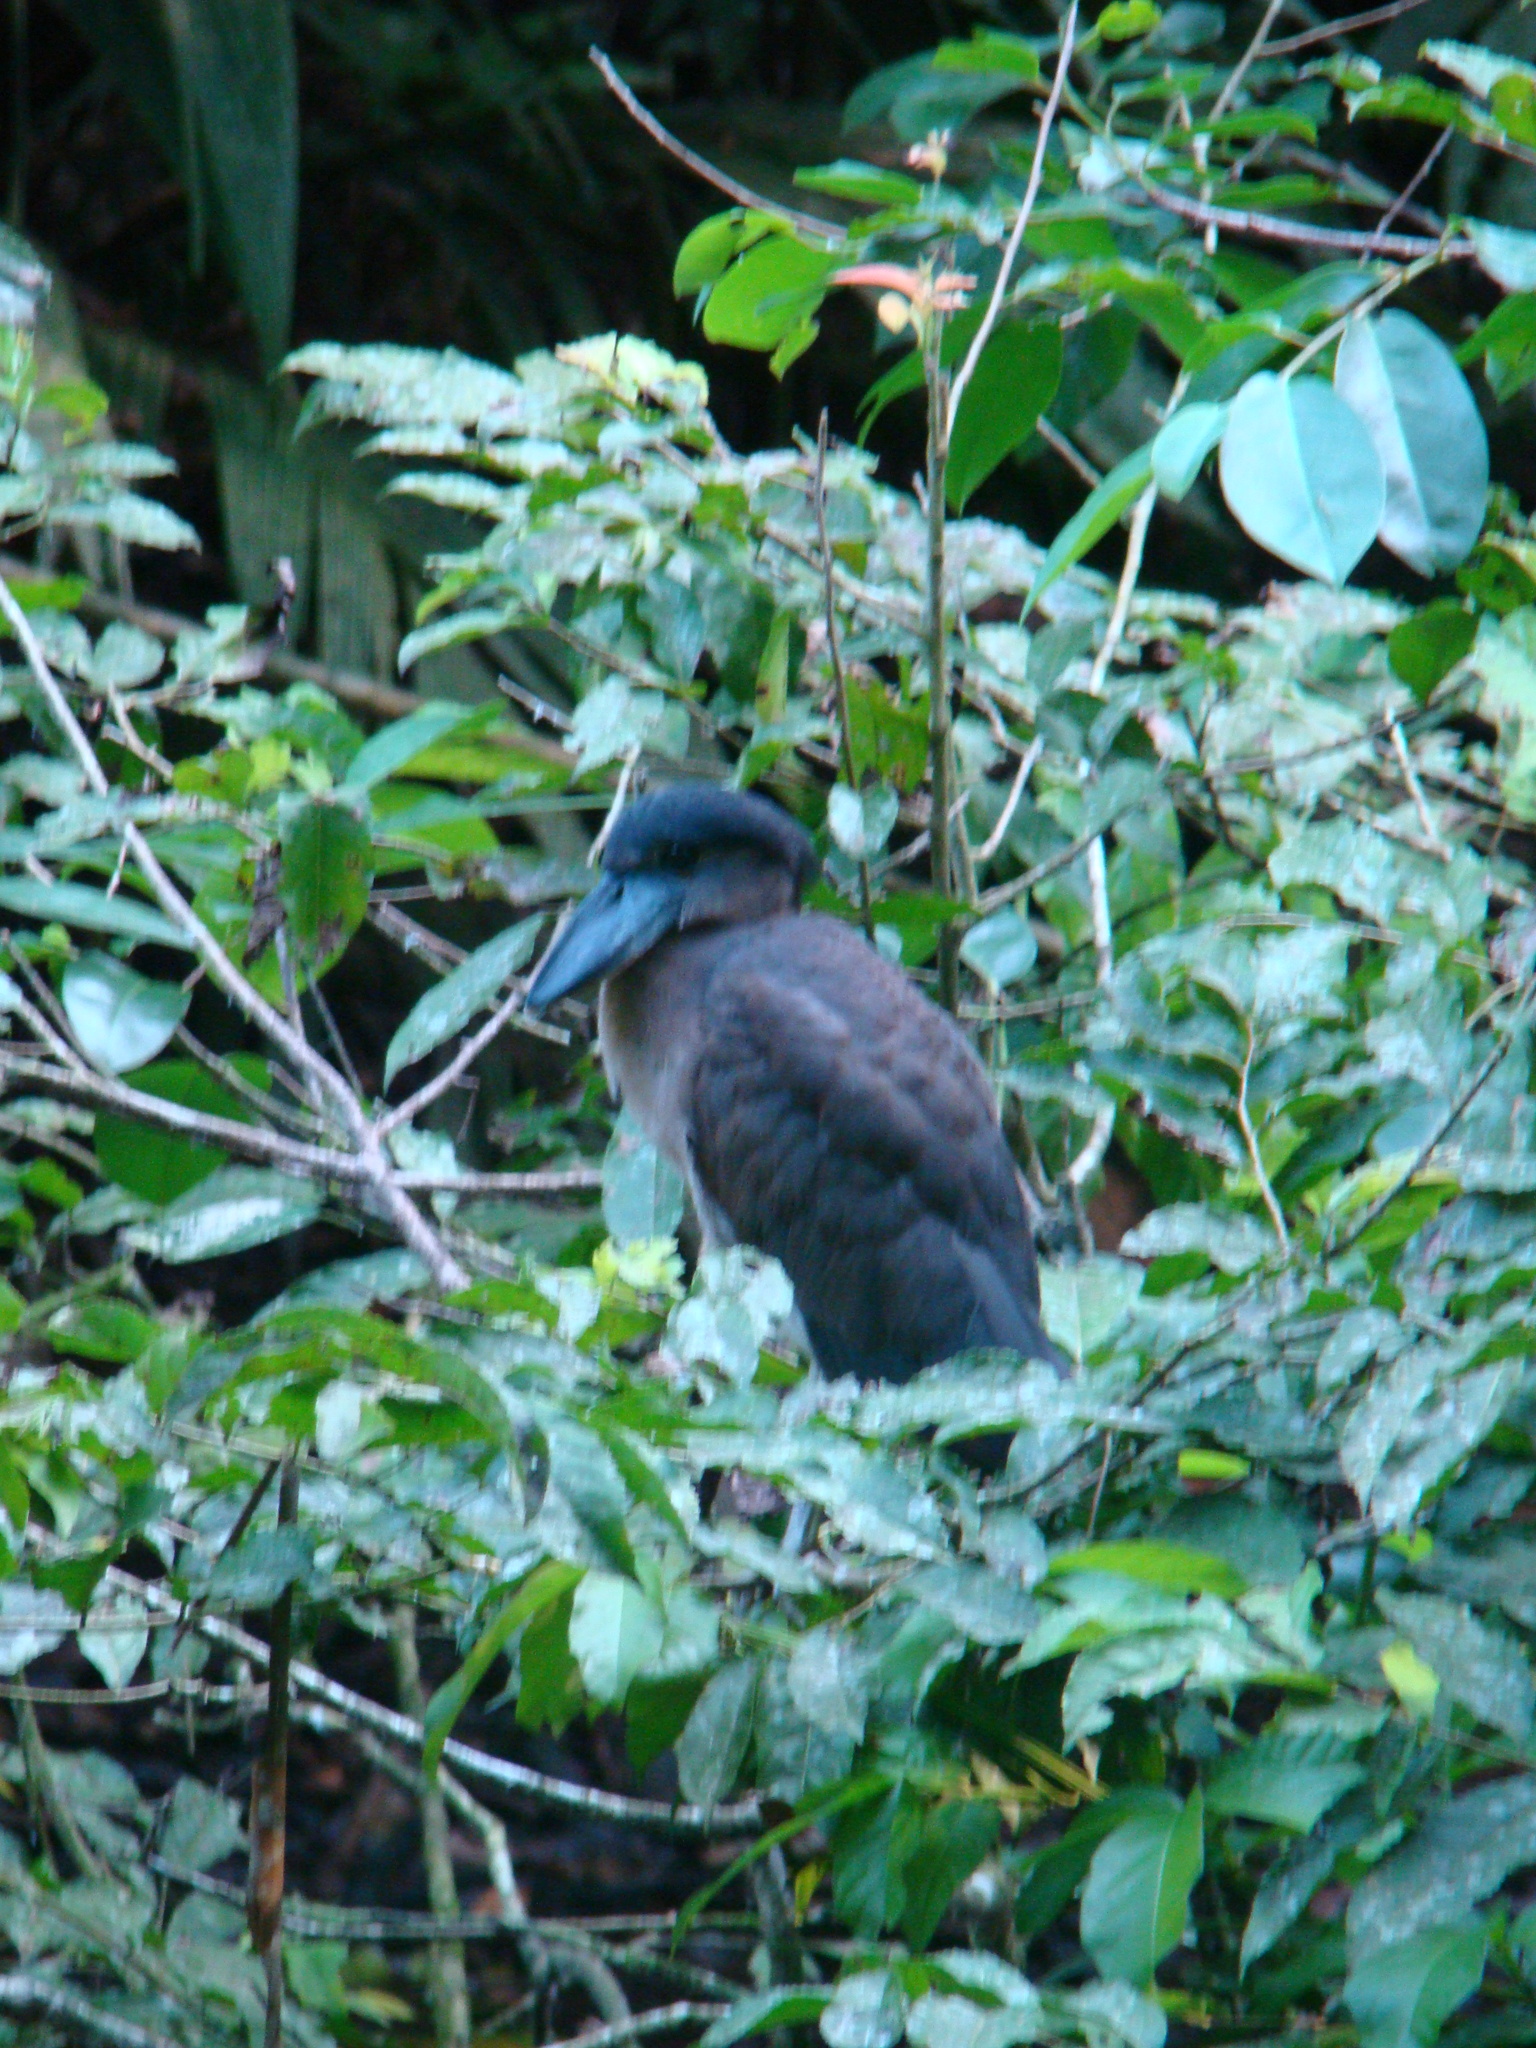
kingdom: Animalia
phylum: Chordata
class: Aves
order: Pelecaniformes
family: Ardeidae
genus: Cochlearius
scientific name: Cochlearius cochlearius
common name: Boat-billed heron
